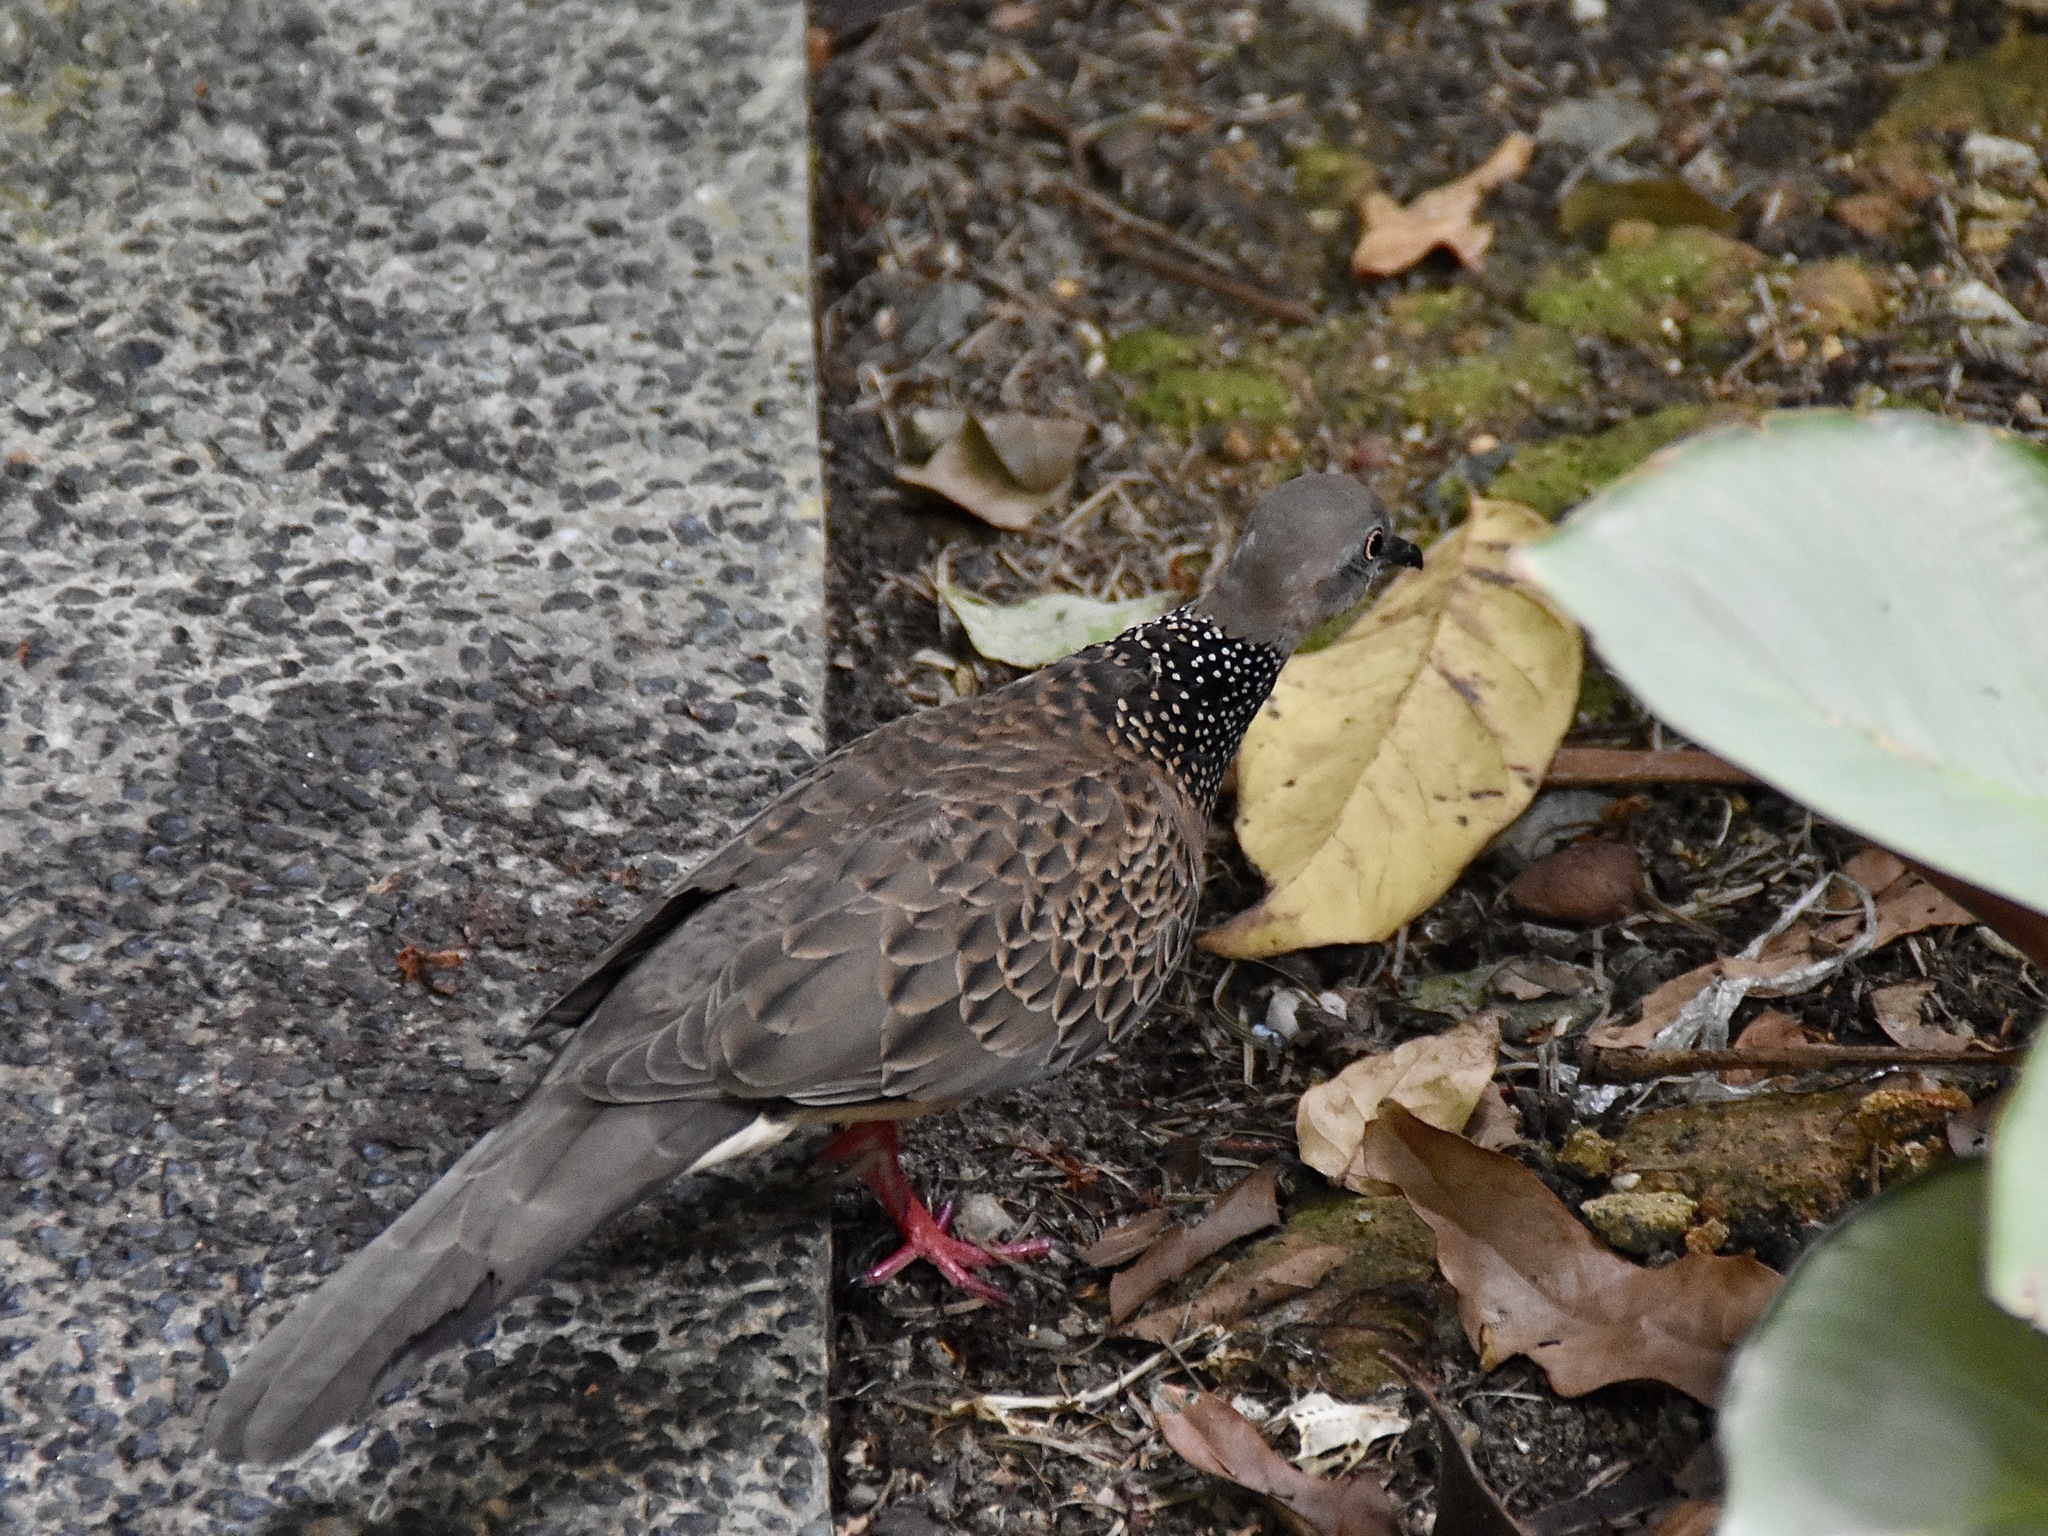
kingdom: Animalia
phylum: Chordata
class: Aves
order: Columbiformes
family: Columbidae
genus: Spilopelia
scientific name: Spilopelia chinensis
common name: Spotted dove
